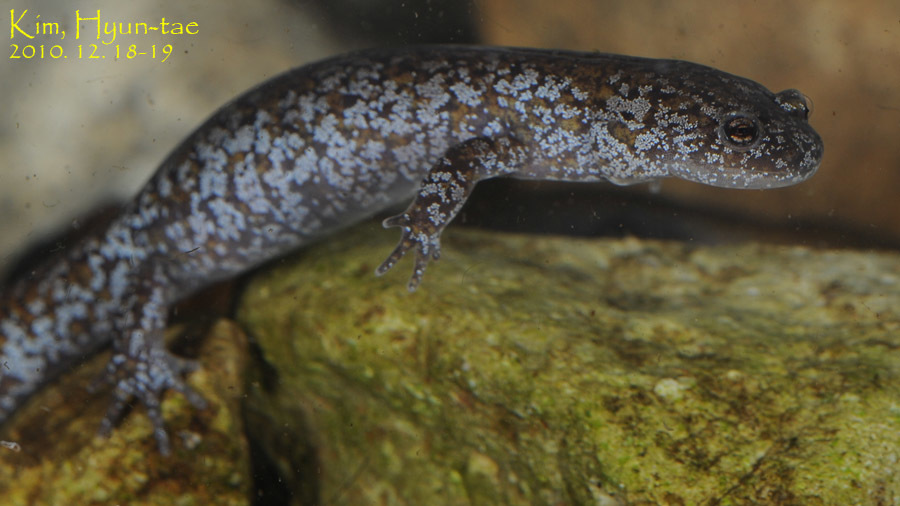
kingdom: Animalia
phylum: Chordata
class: Amphibia
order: Caudata
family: Hynobiidae
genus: Hynobius
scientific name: Hynobius leechii
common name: Gensan salamander
